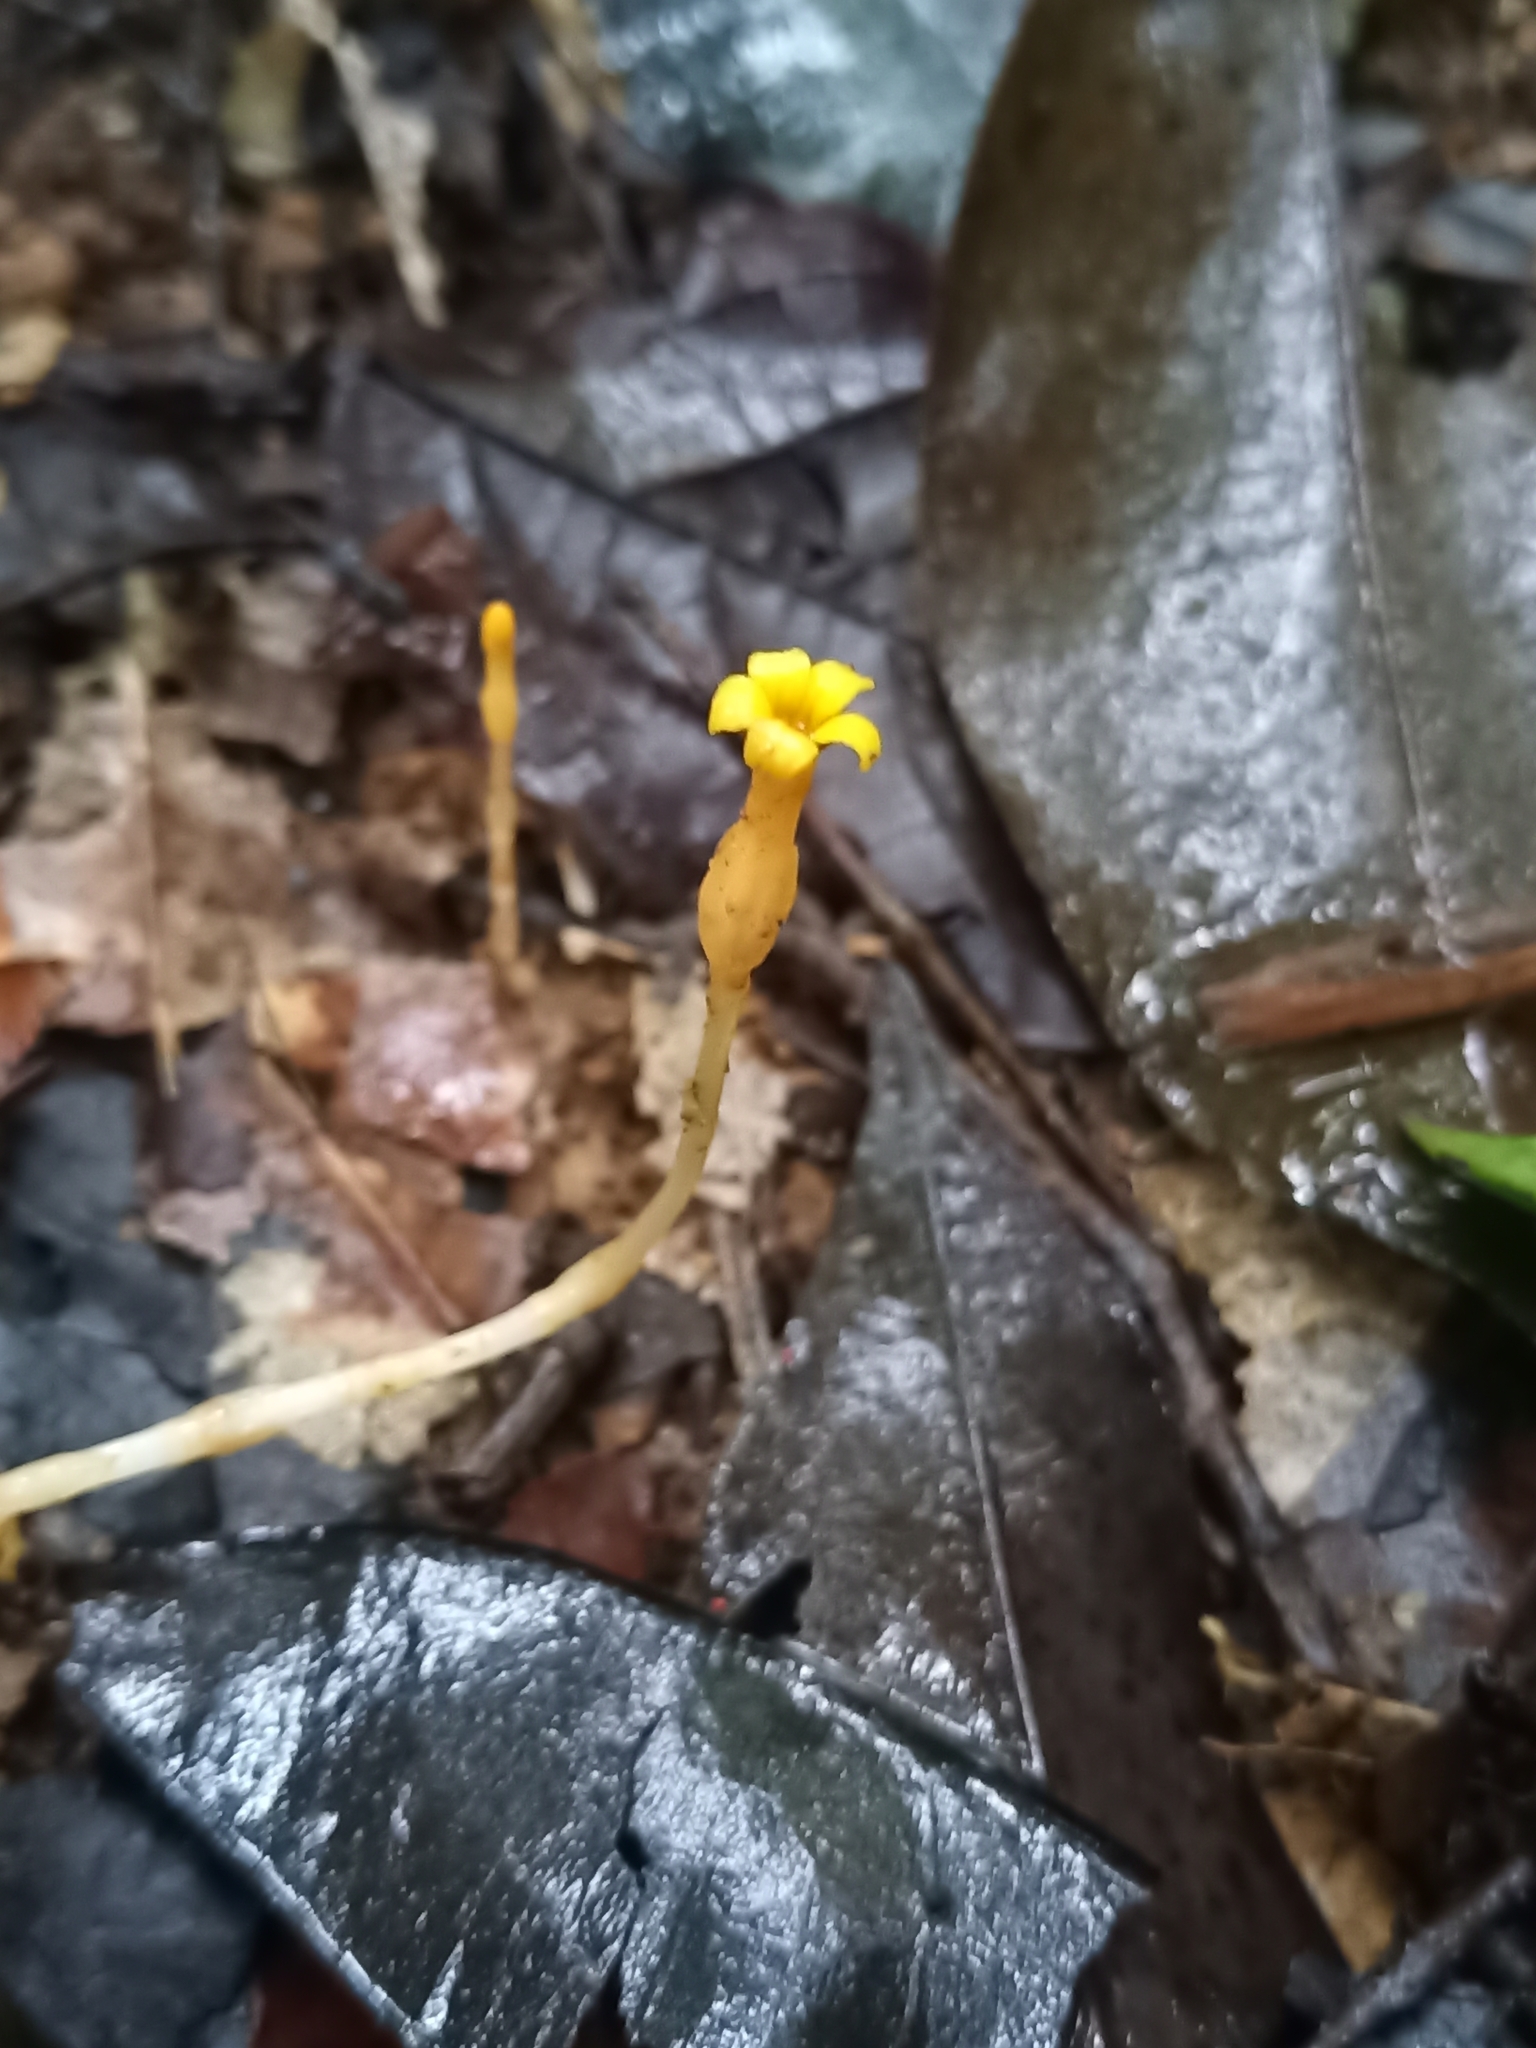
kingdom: Plantae
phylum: Tracheophyta
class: Magnoliopsida
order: Gentianales
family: Gentianaceae
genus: Voyria
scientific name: Voyria flavescens
